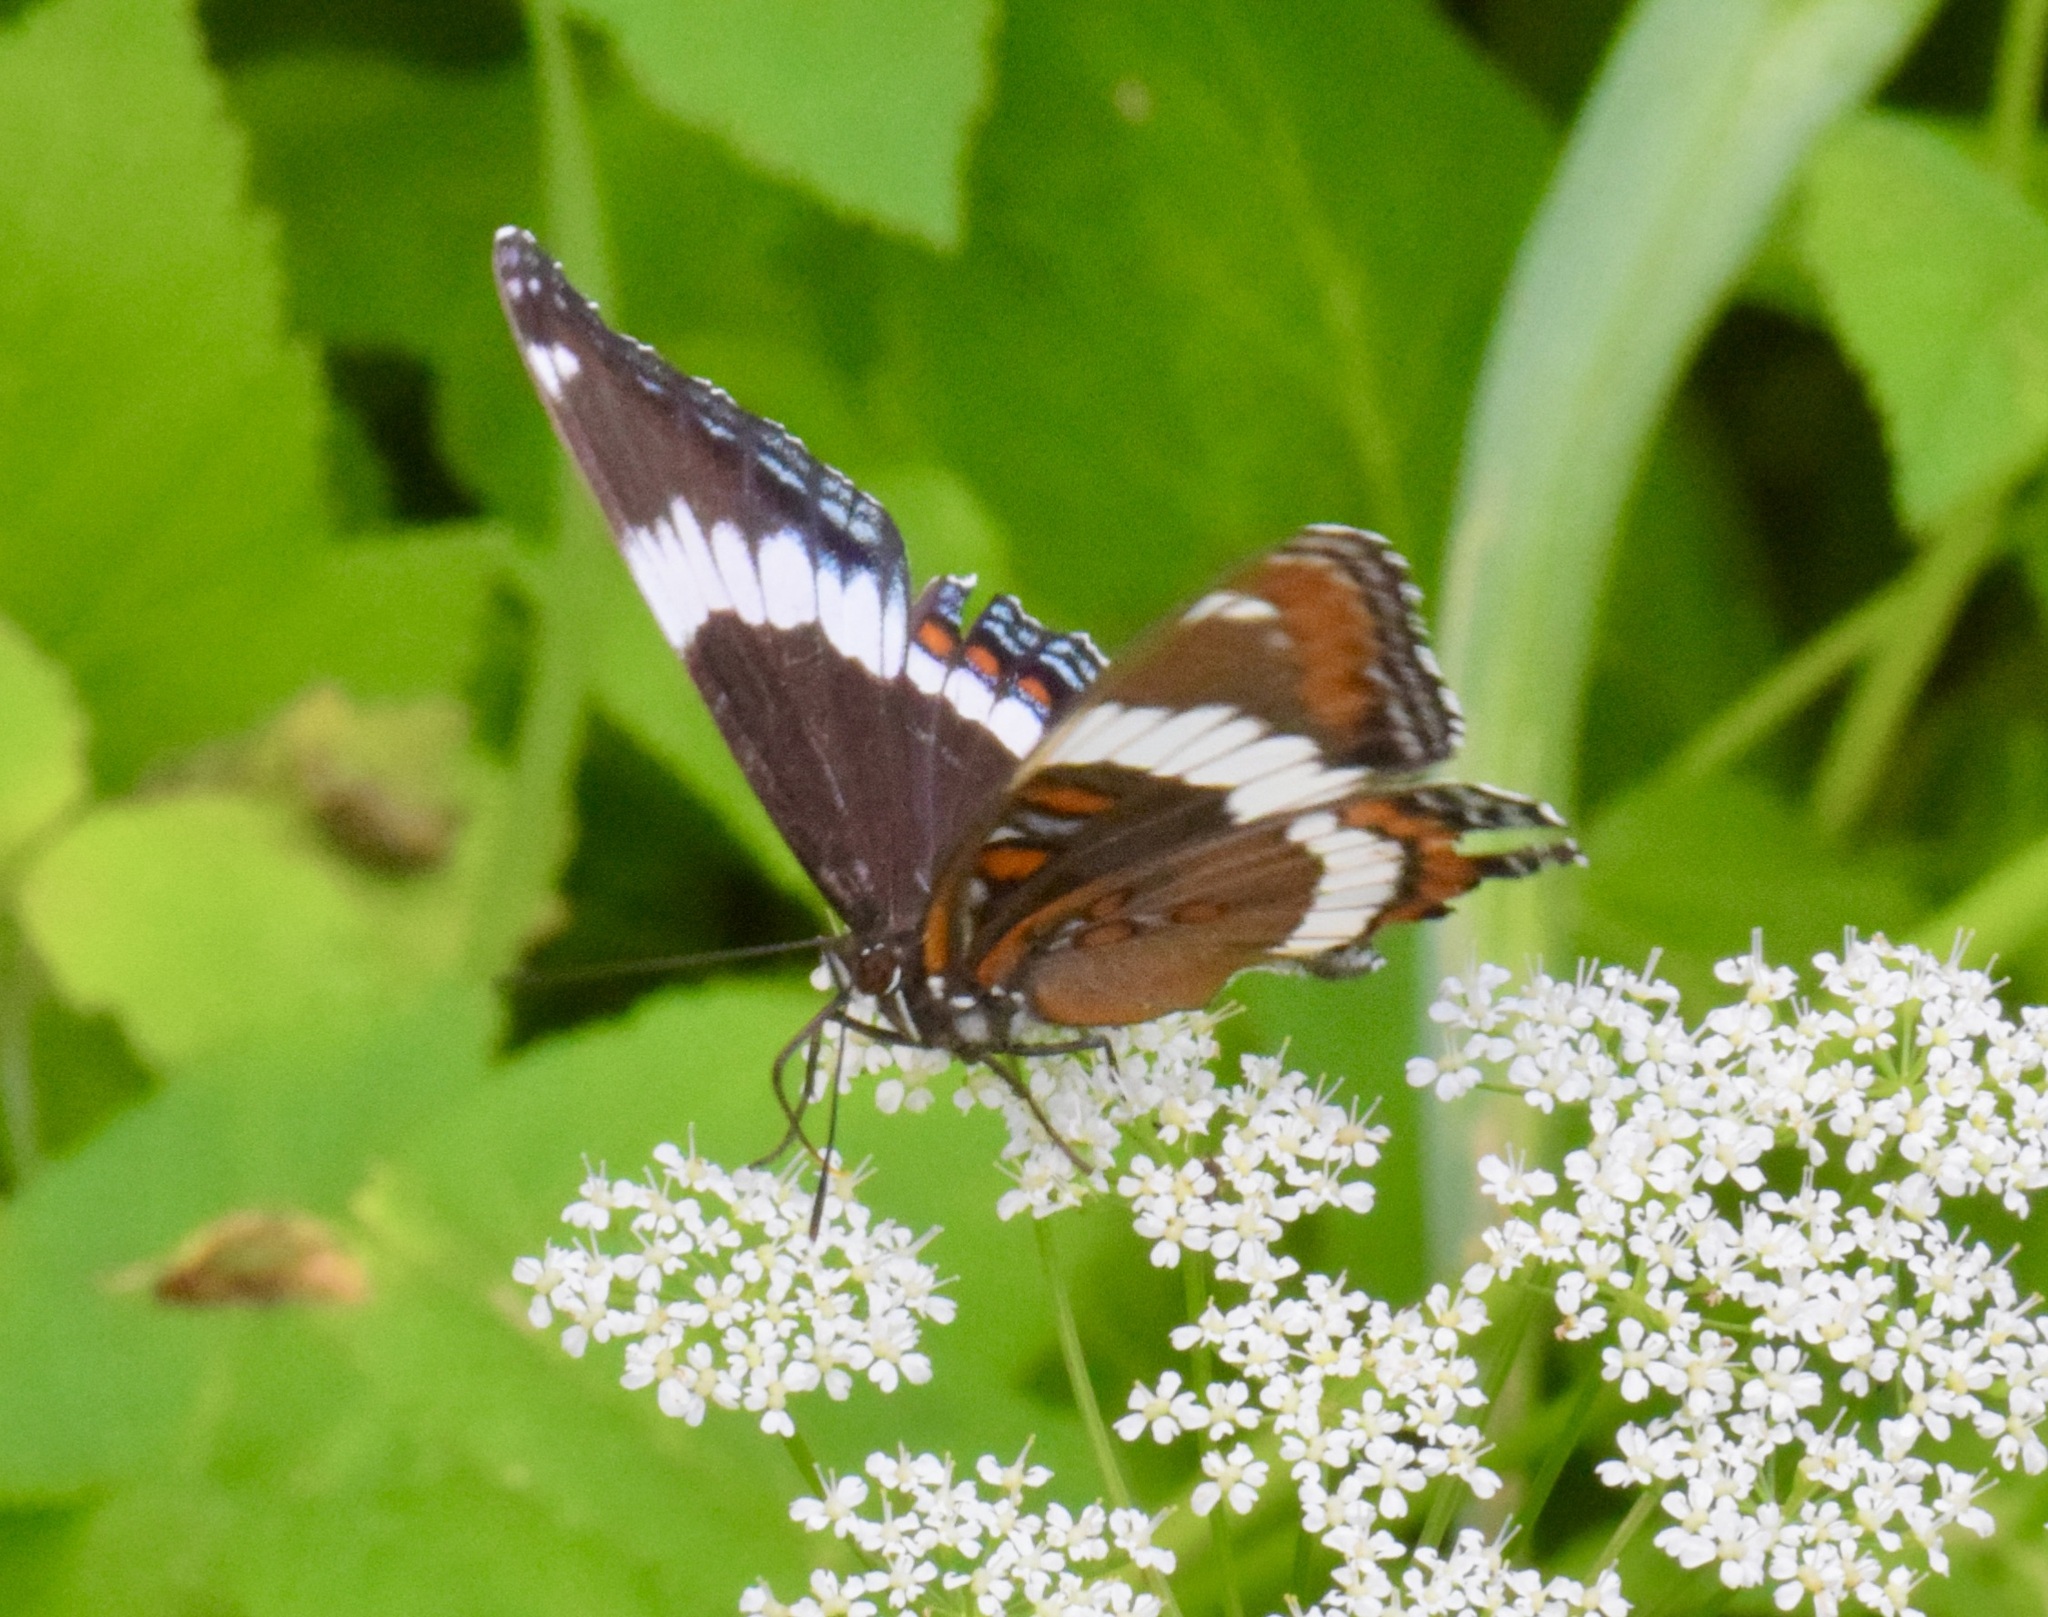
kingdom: Animalia
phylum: Arthropoda
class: Insecta
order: Lepidoptera
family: Nymphalidae
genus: Limenitis
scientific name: Limenitis arthemis
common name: Red-spotted admiral
